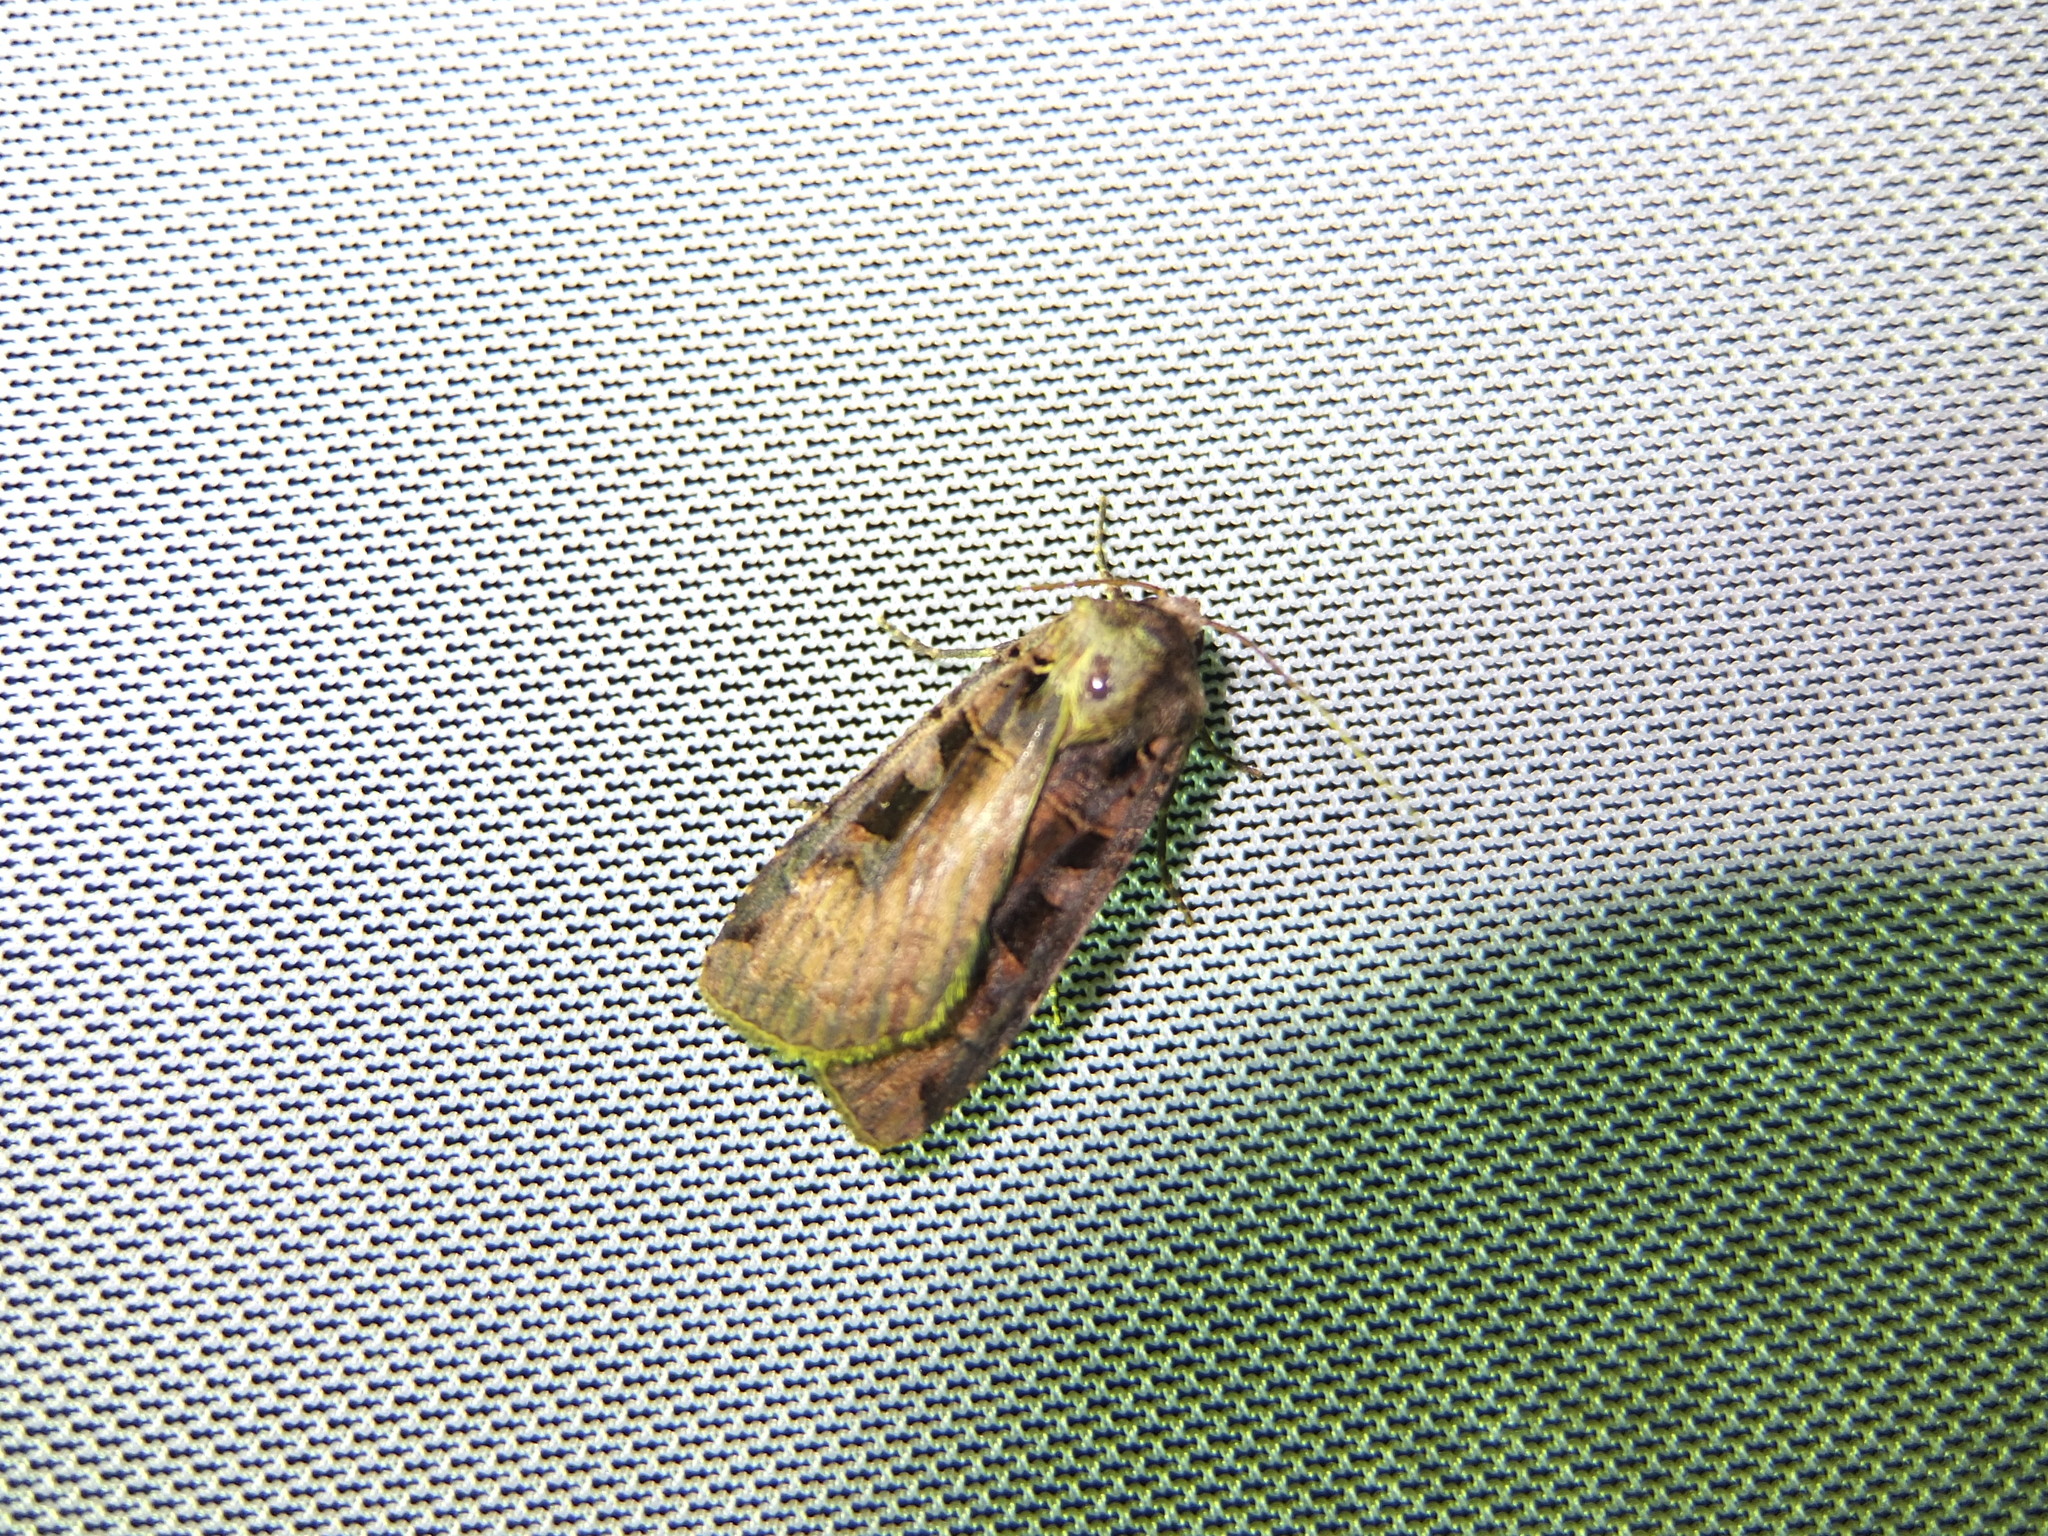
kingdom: Animalia
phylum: Arthropoda
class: Insecta
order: Lepidoptera
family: Noctuidae
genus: Xestia
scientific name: Xestia ditrapezium
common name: Triple-spotted clay
